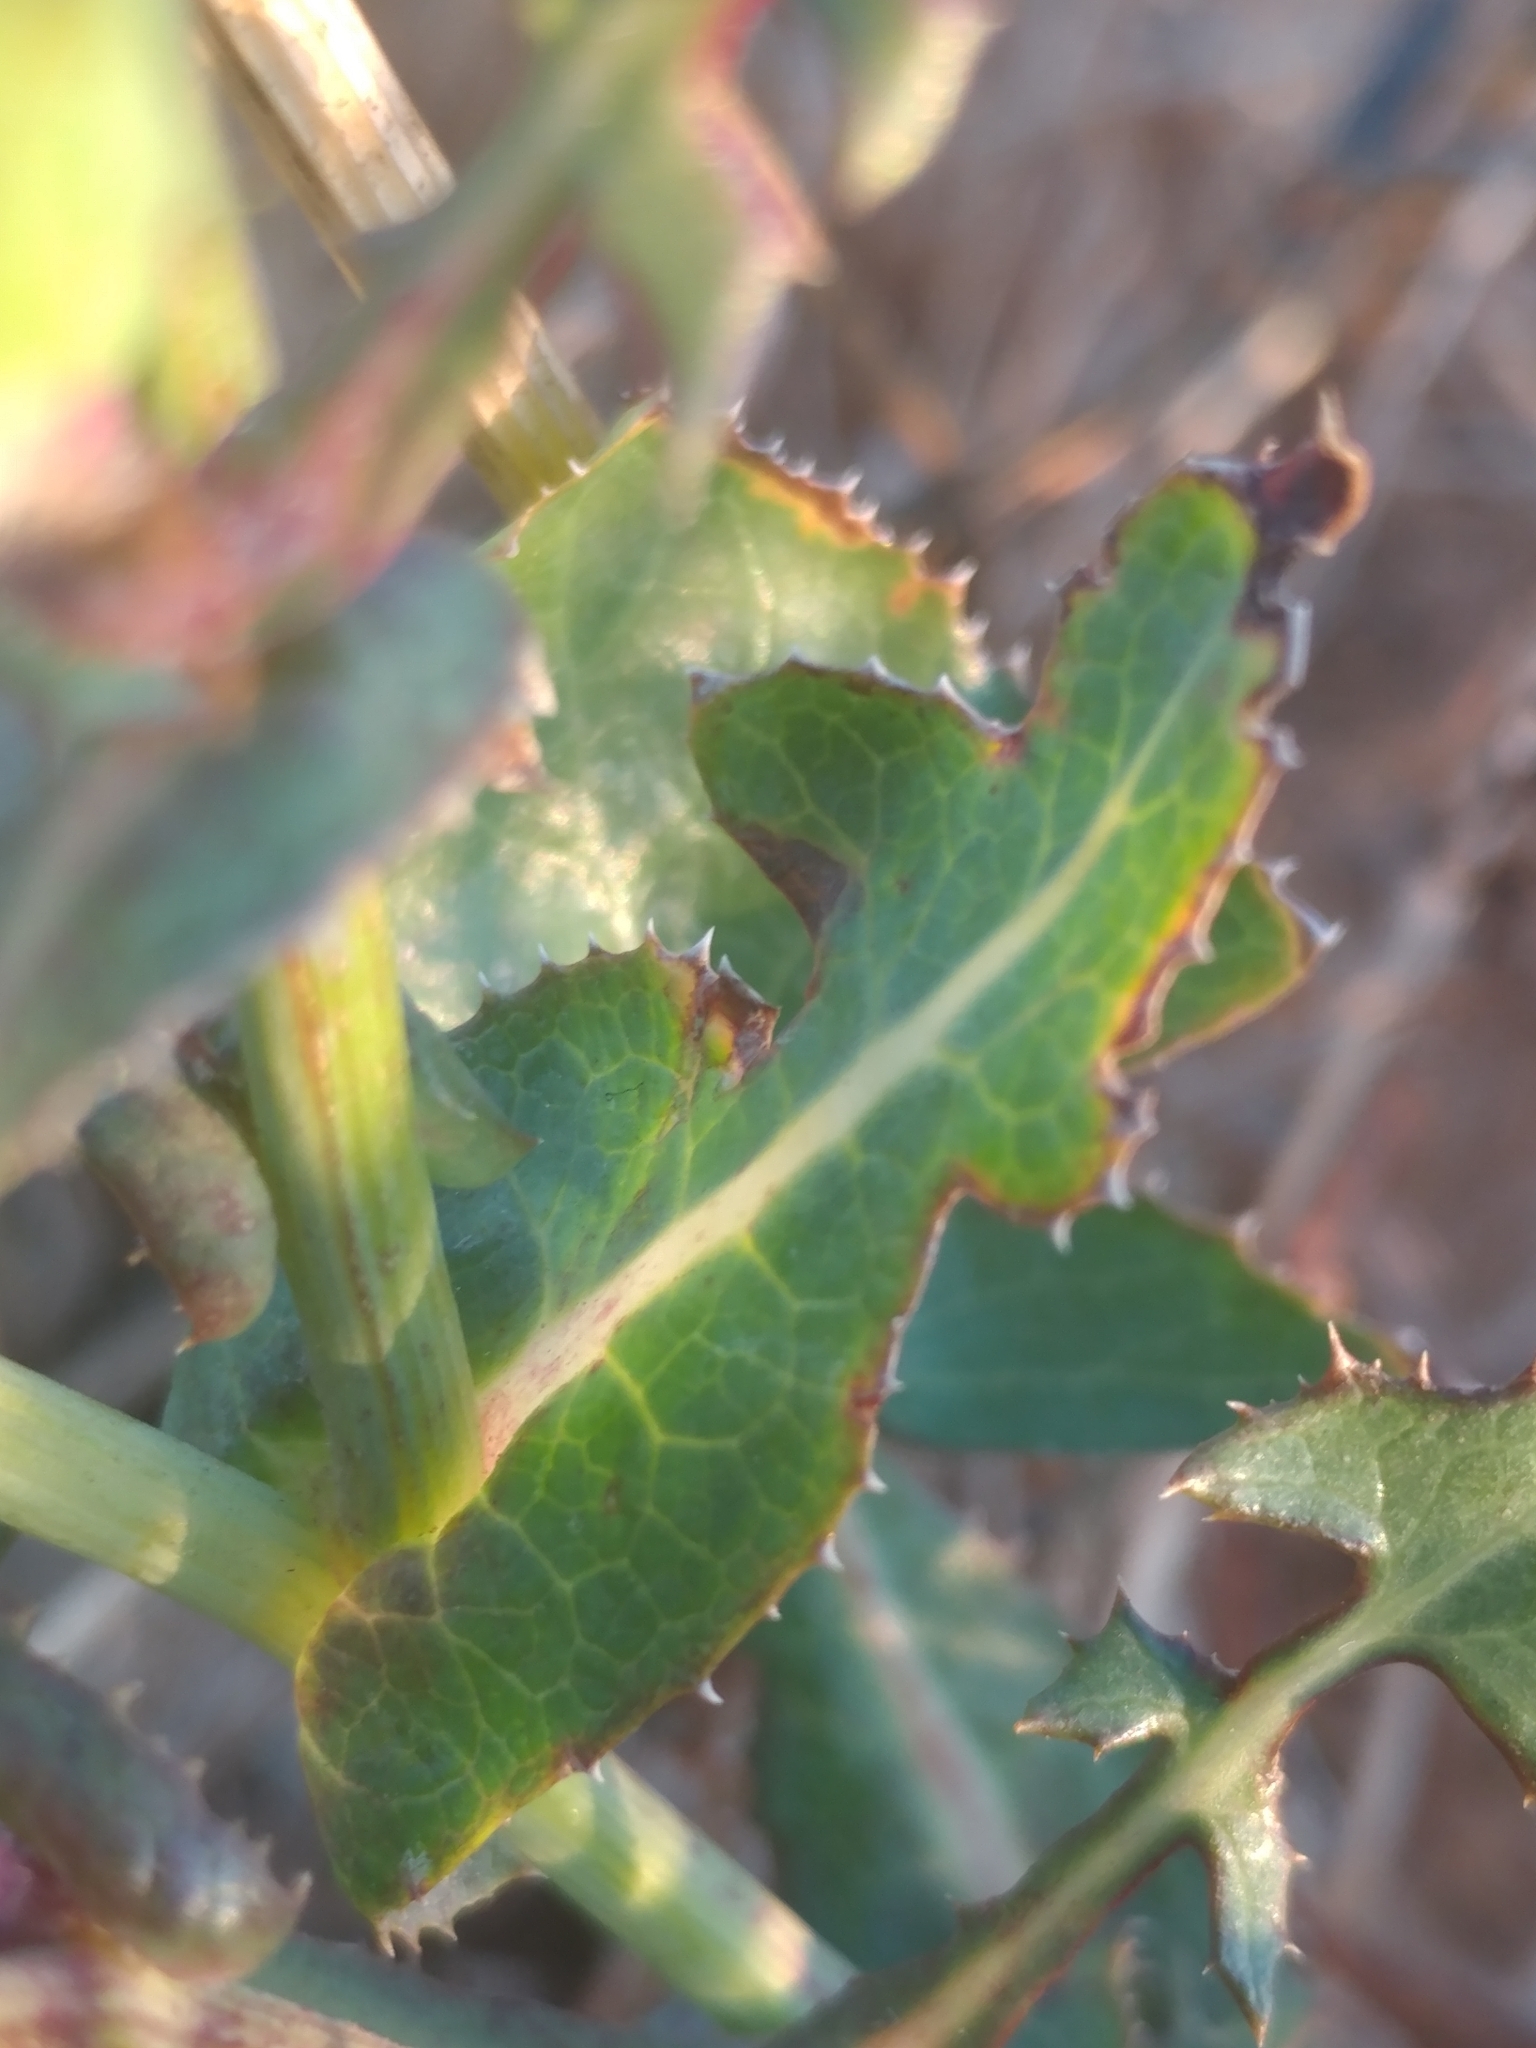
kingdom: Plantae
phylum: Tracheophyta
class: Magnoliopsida
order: Asterales
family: Asteraceae
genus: Sonchus
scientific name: Sonchus oleraceus
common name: Common sowthistle
